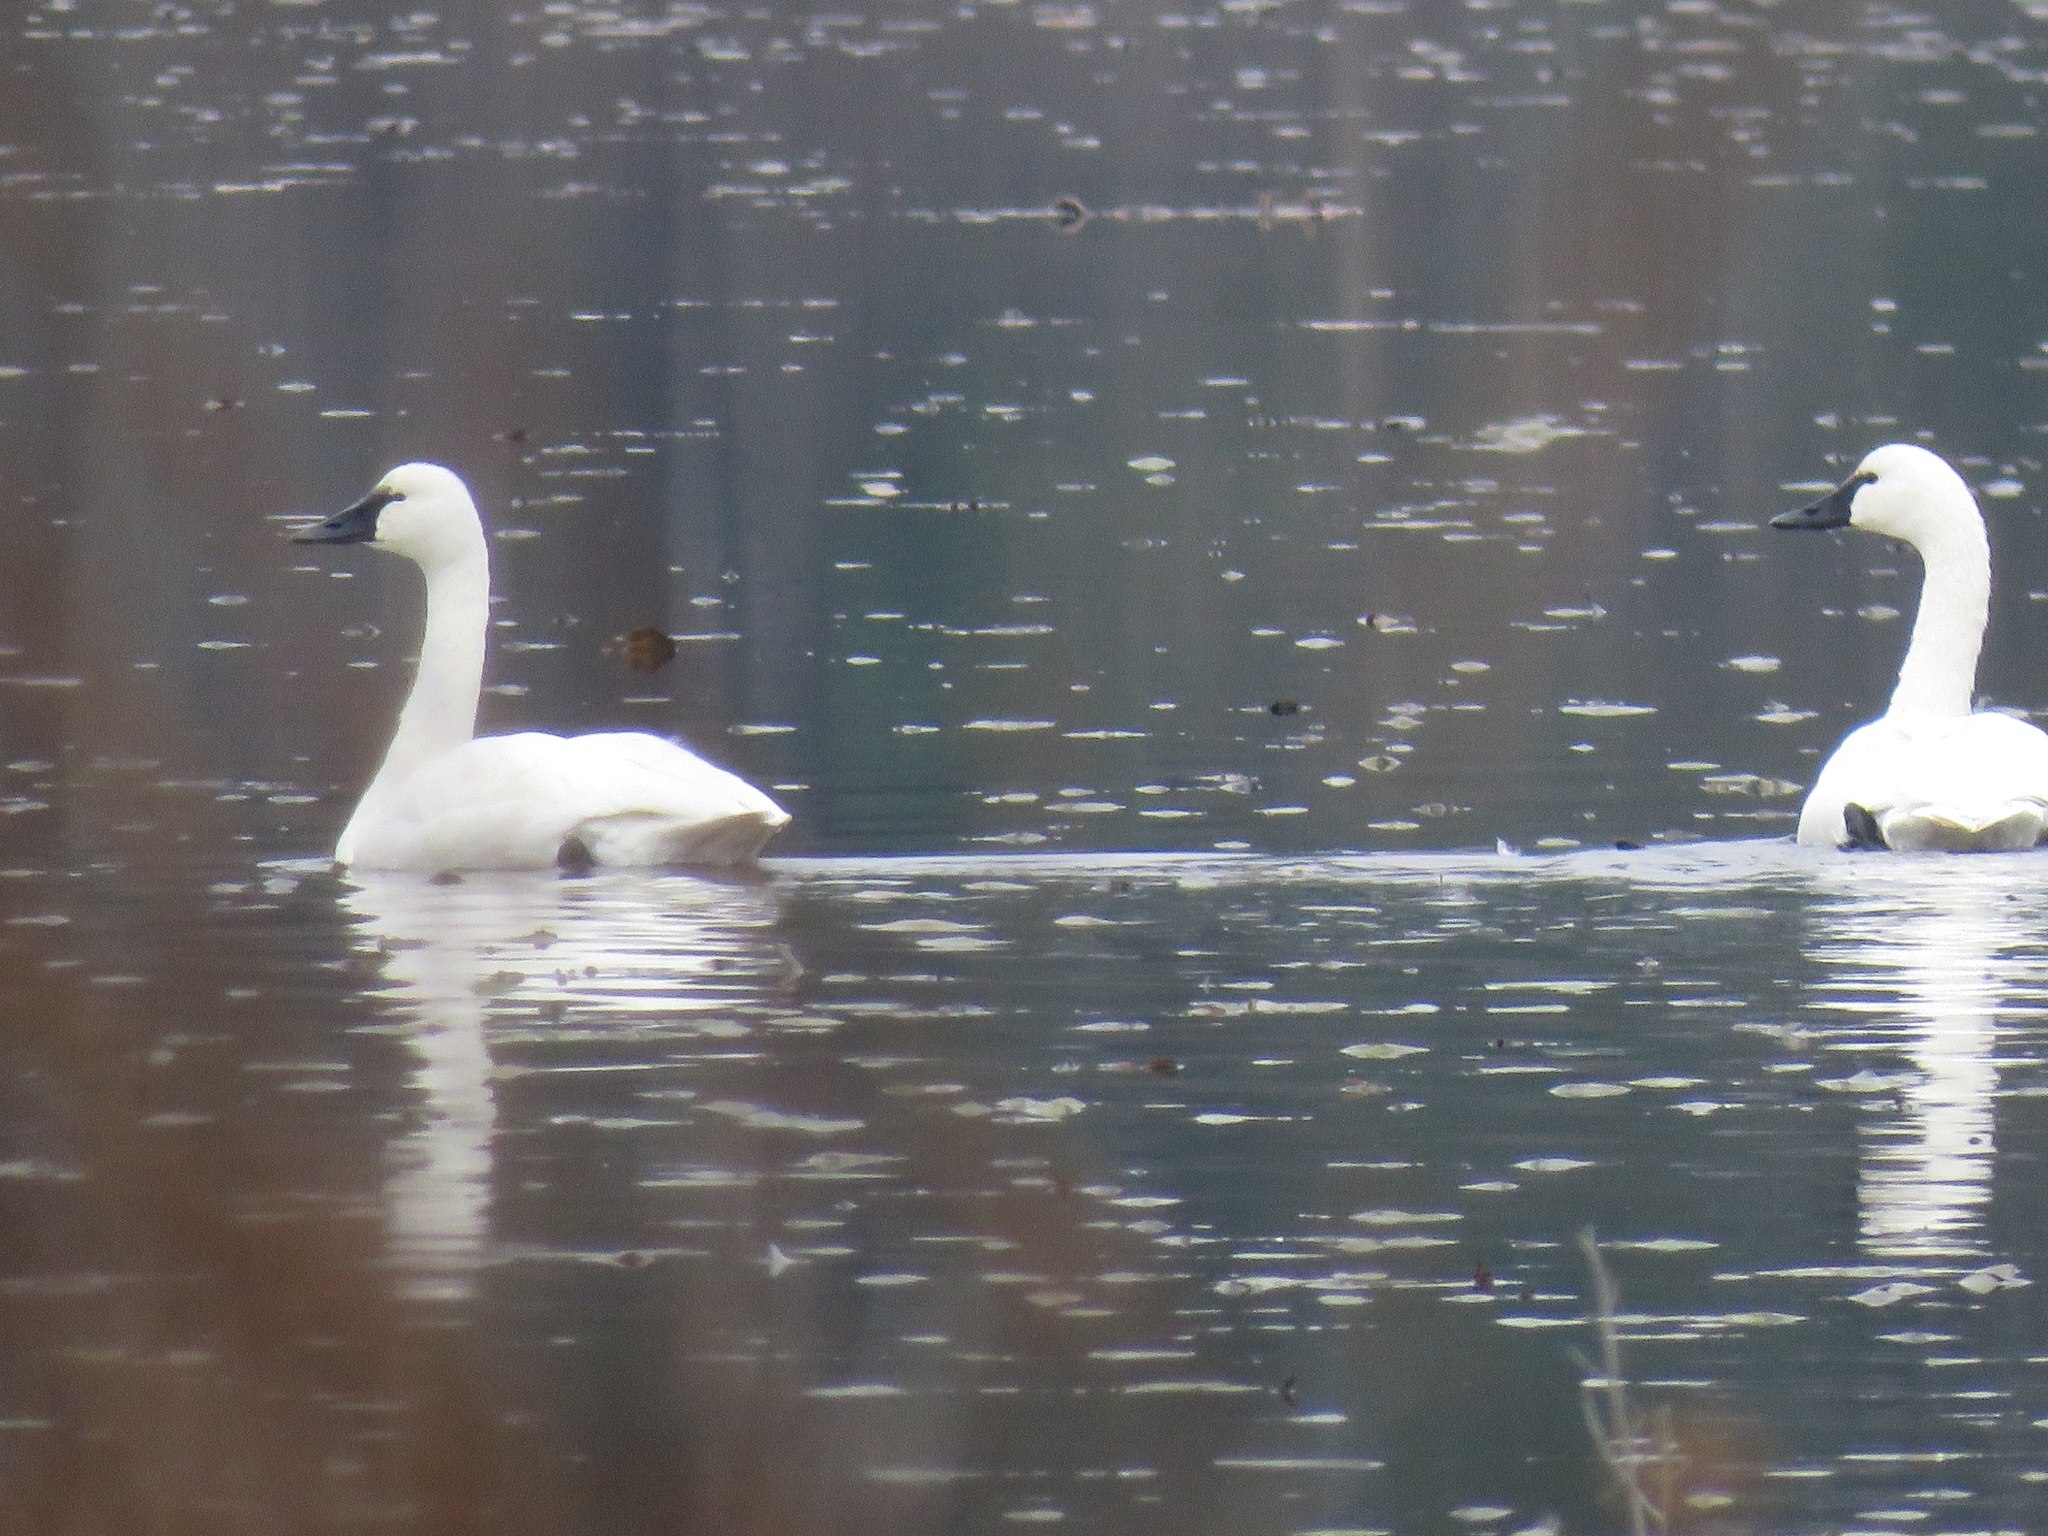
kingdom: Animalia
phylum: Chordata
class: Aves
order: Anseriformes
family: Anatidae
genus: Cygnus
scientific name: Cygnus columbianus
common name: Tundra swan
